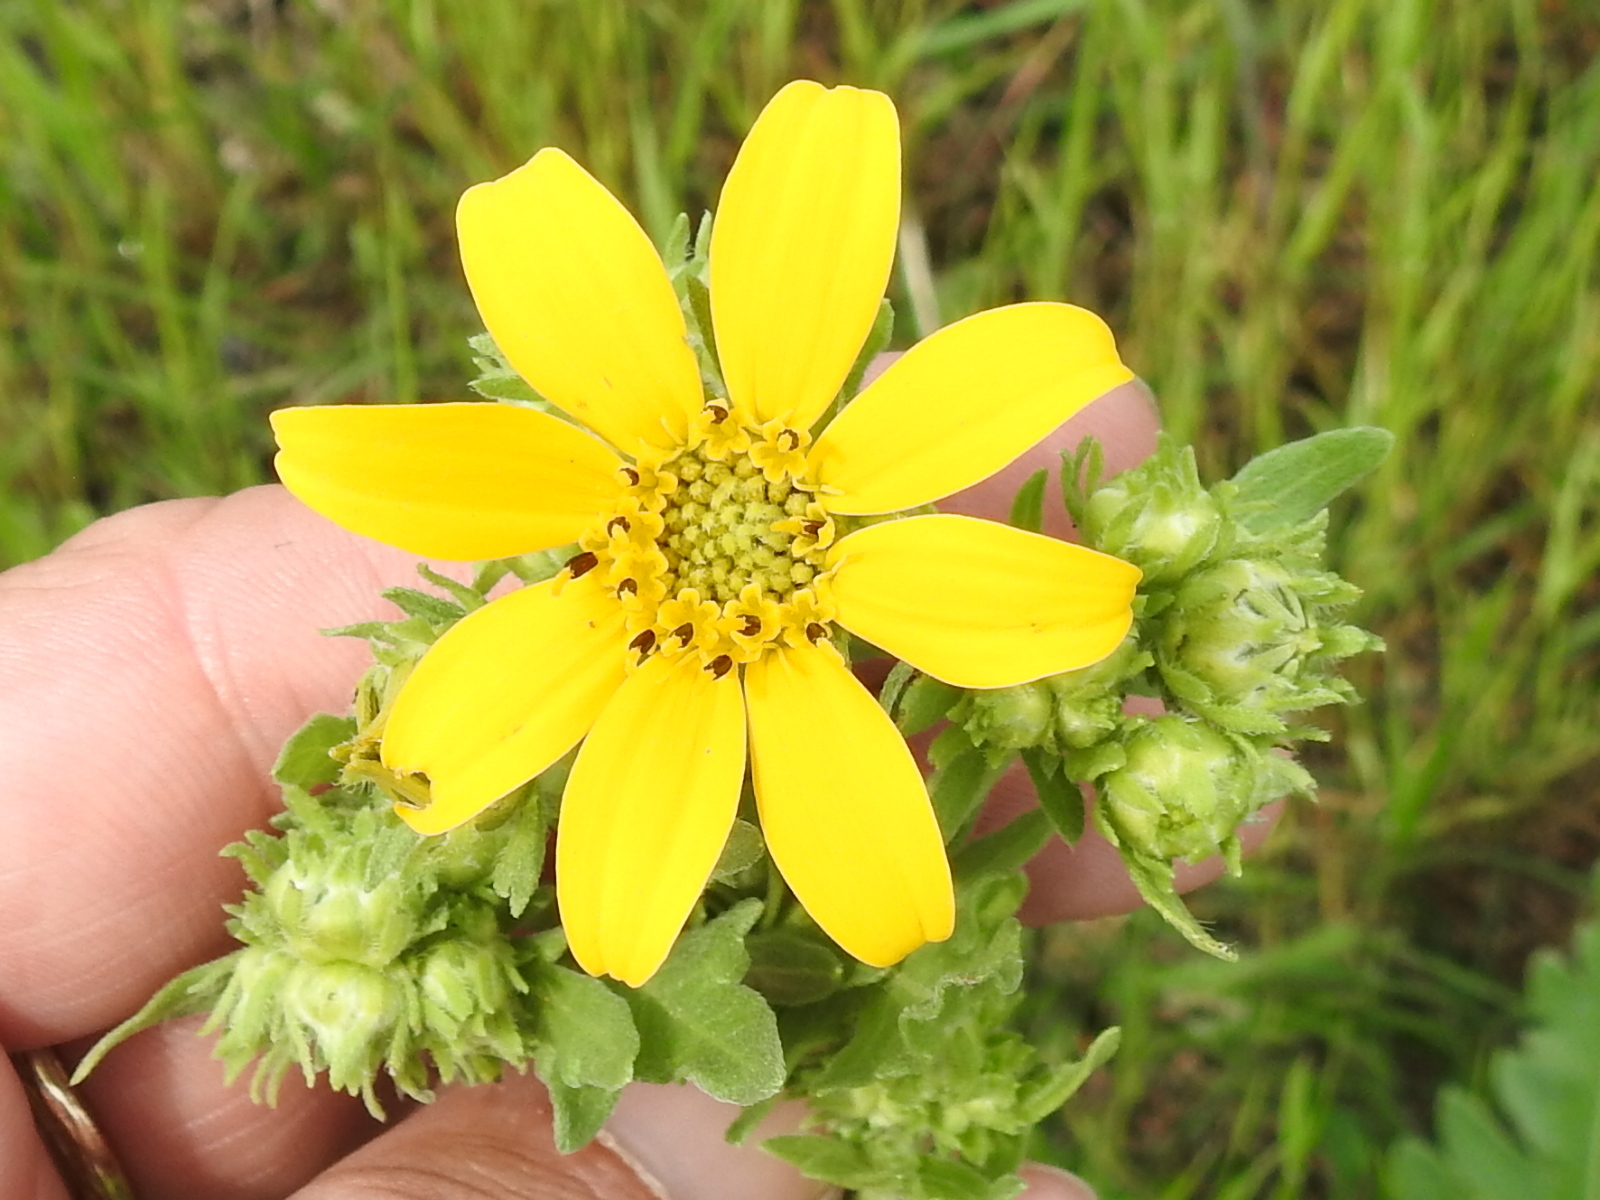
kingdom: Plantae
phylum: Tracheophyta
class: Magnoliopsida
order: Asterales
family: Asteraceae
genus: Engelmannia
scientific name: Engelmannia peristenia
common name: Engelmann's daisy
